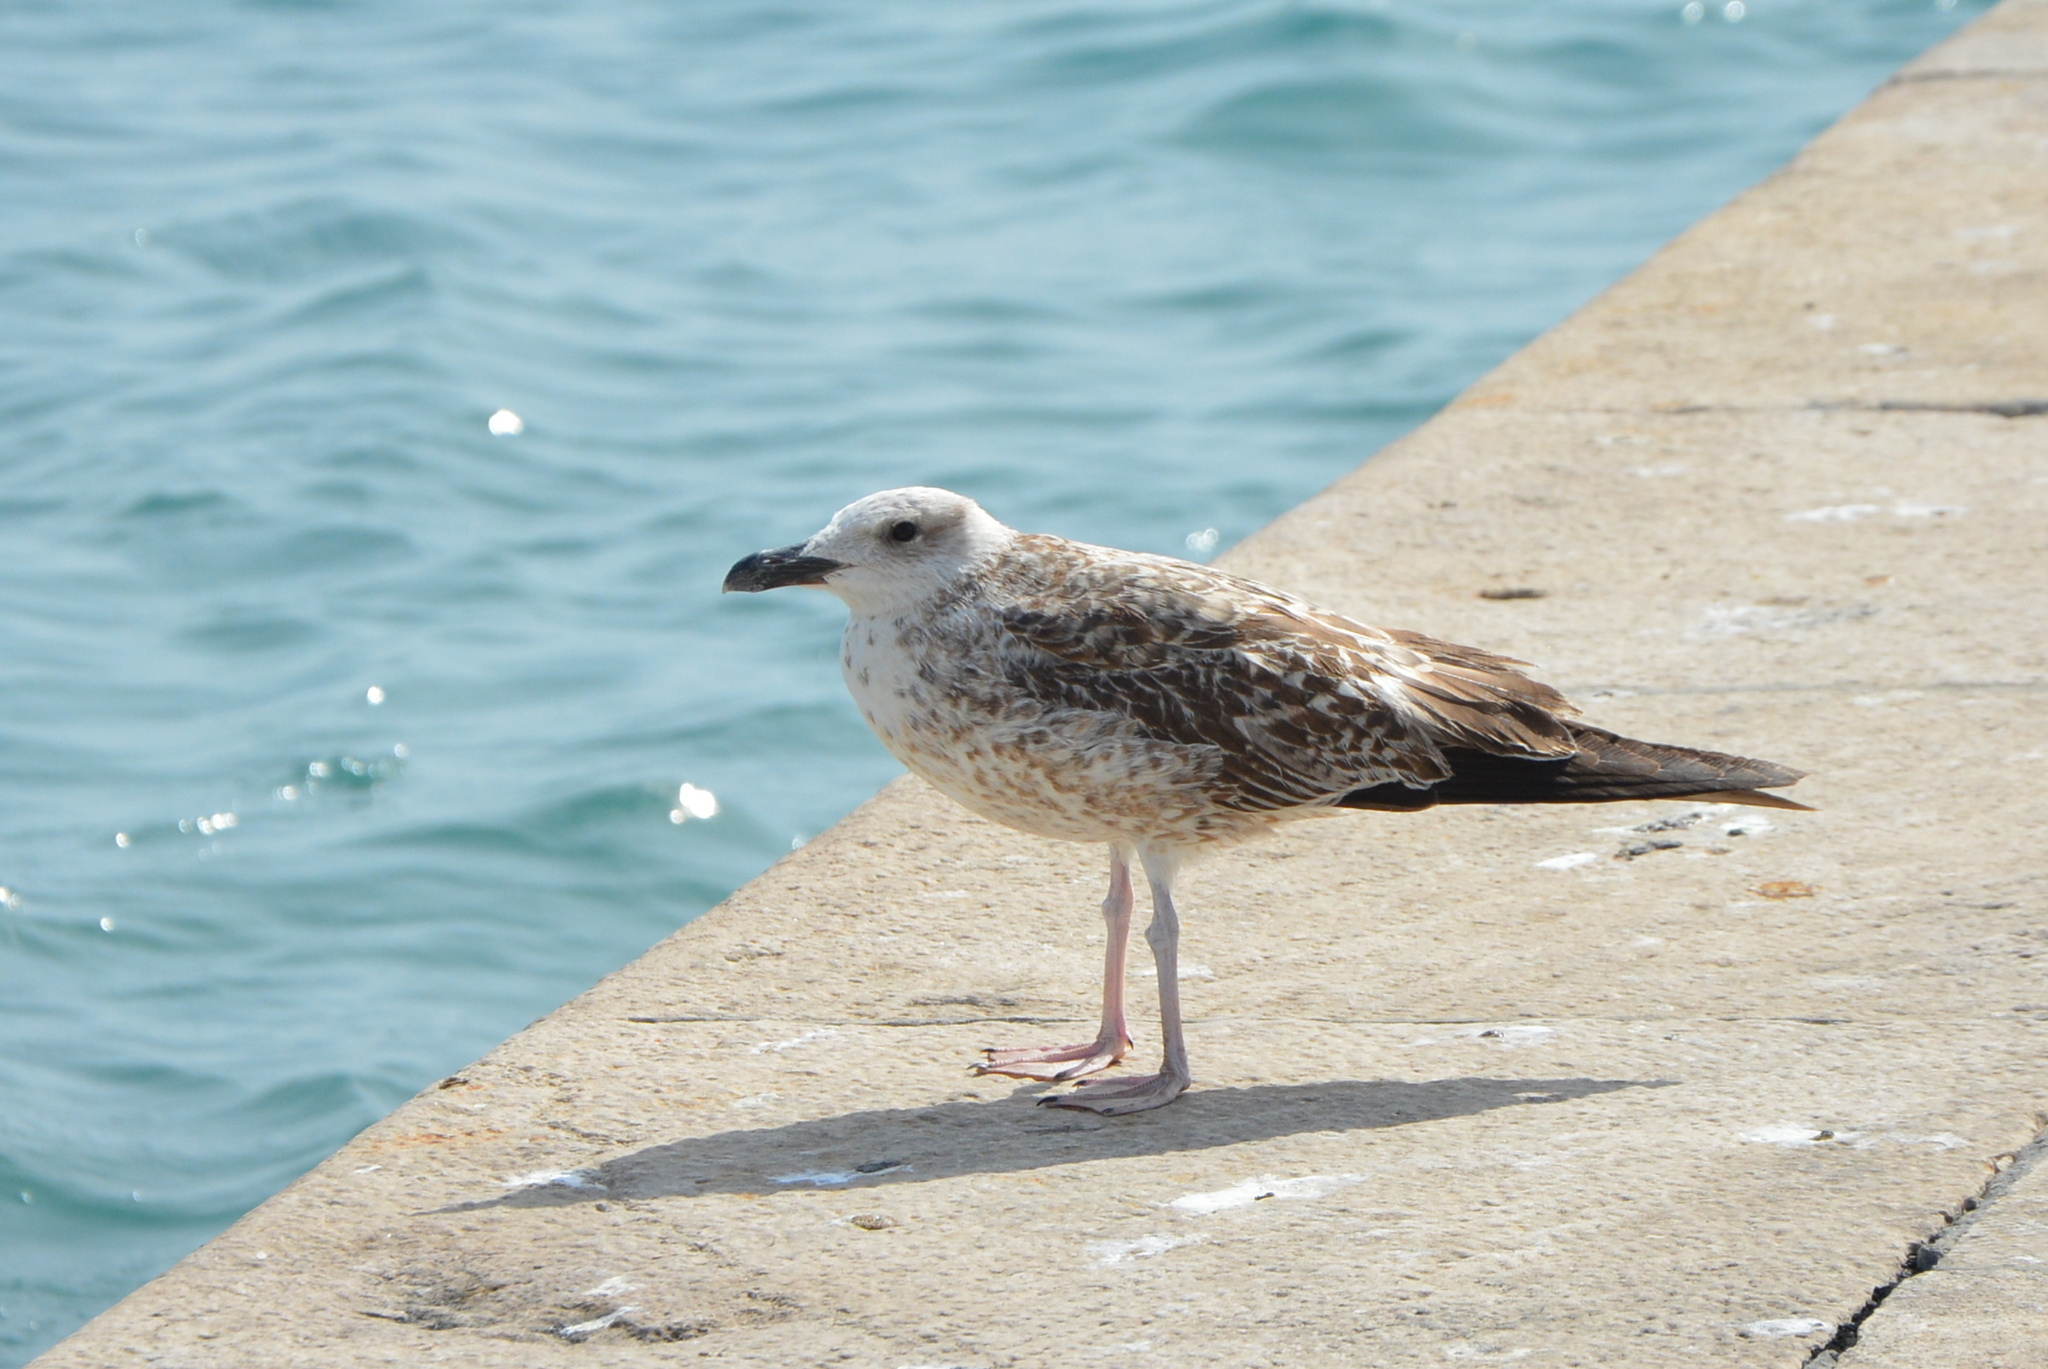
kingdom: Animalia
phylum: Chordata
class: Aves
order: Charadriiformes
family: Laridae
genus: Larus
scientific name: Larus michahellis
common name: Yellow-legged gull
